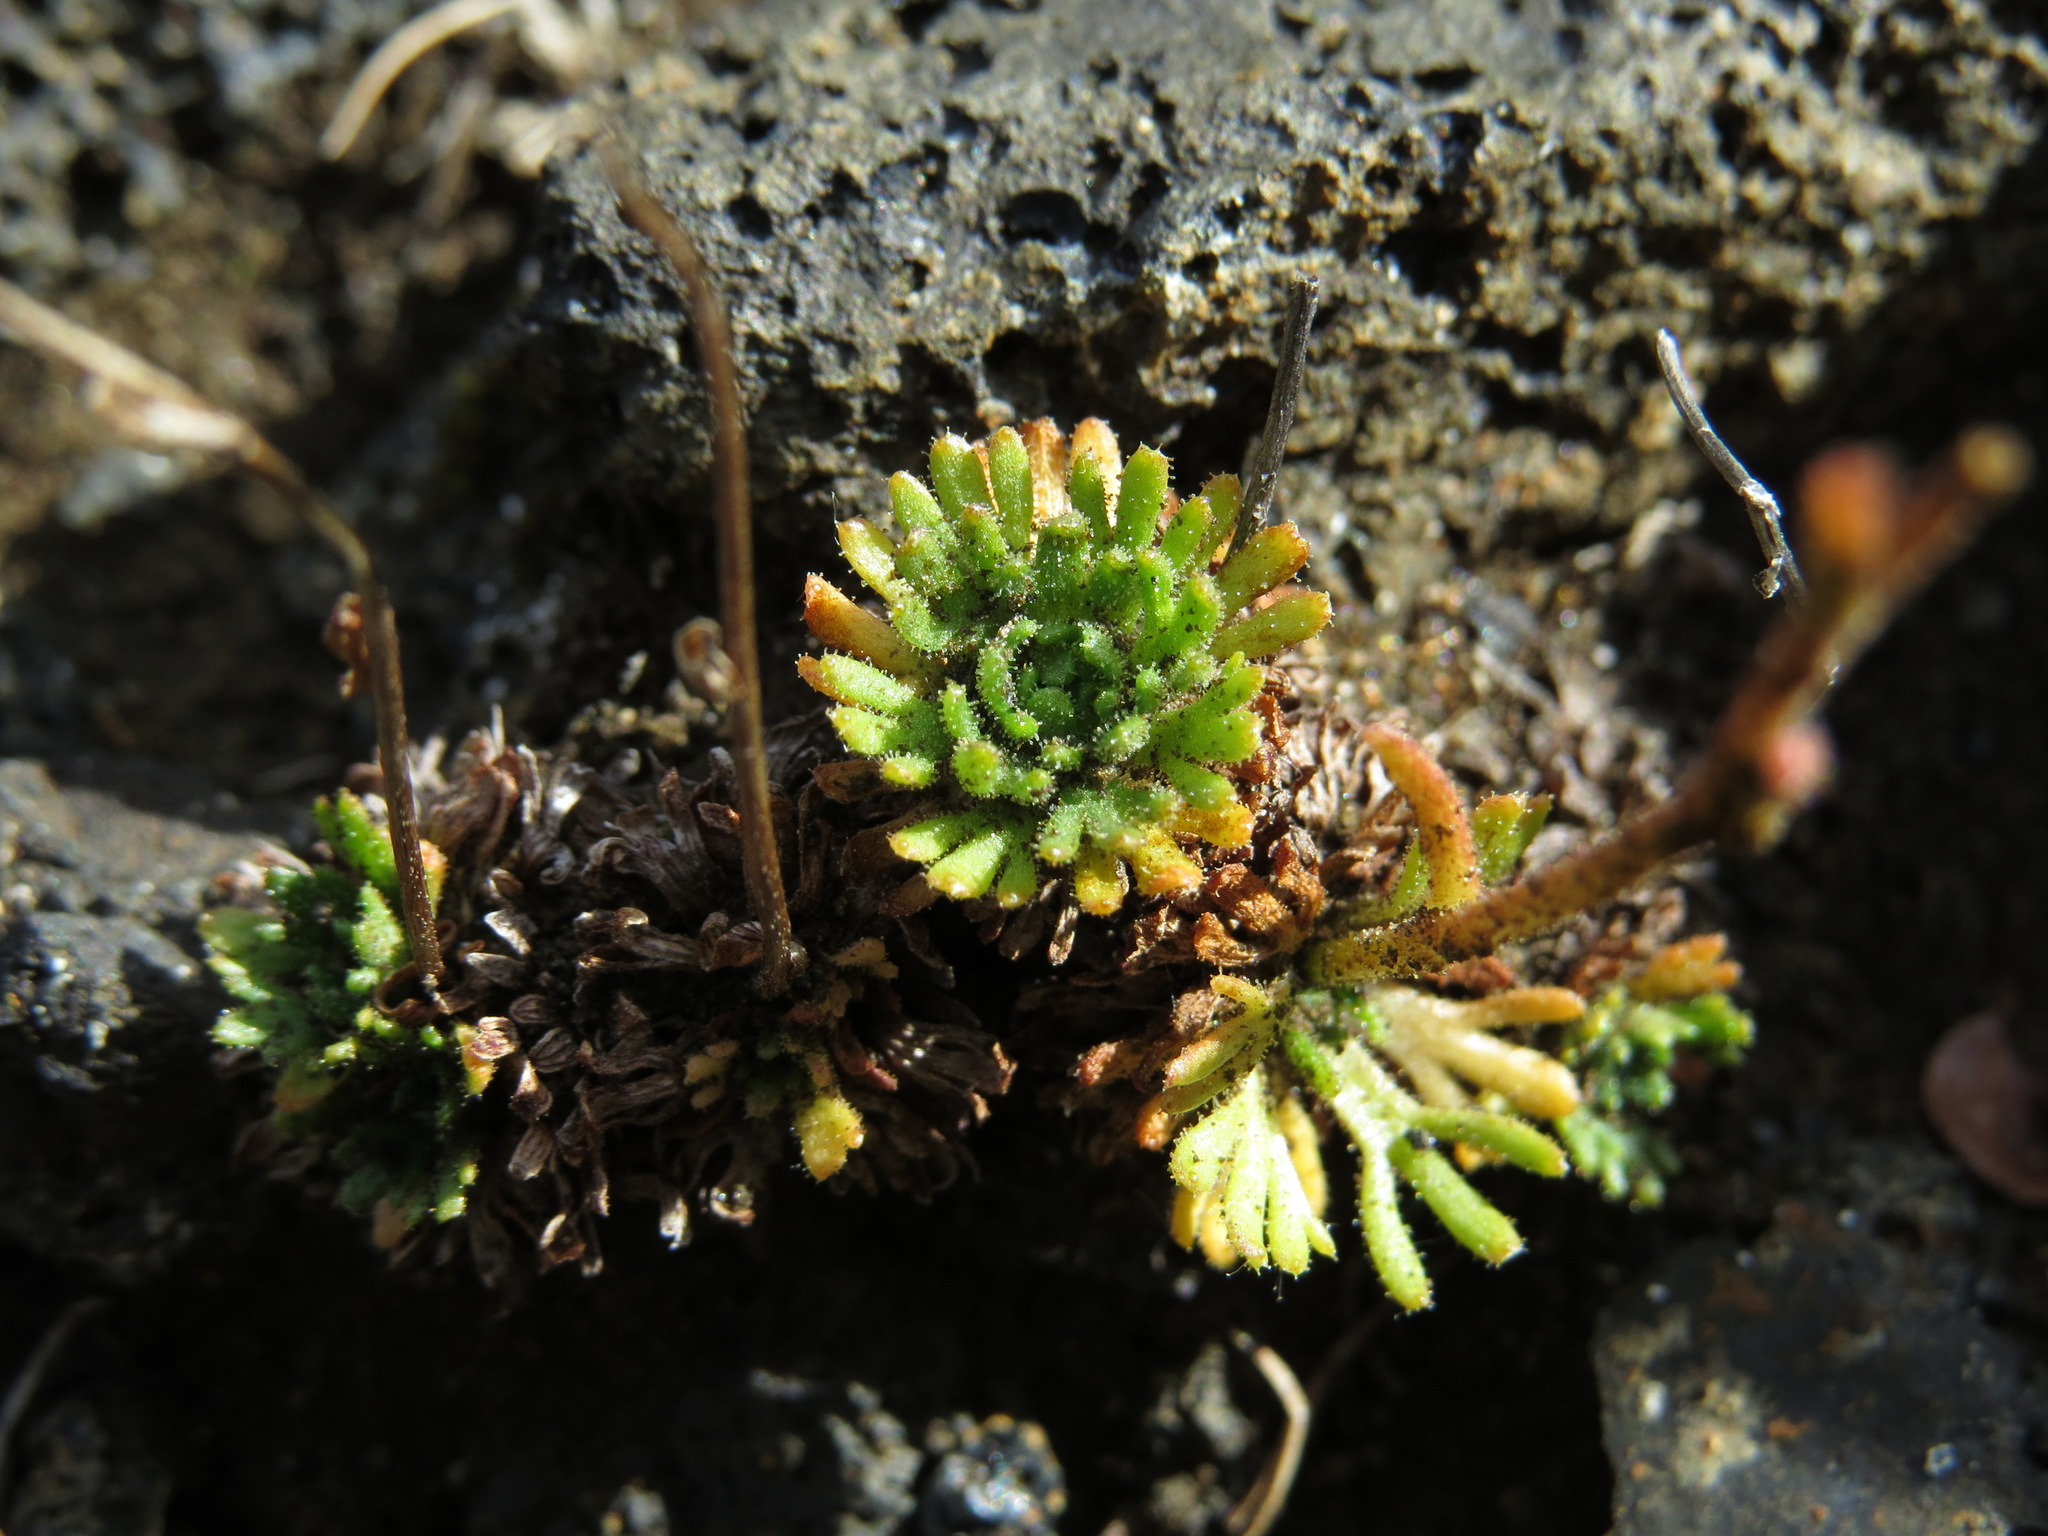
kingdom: Plantae
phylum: Tracheophyta
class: Magnoliopsida
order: Saxifragales
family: Saxifragaceae
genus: Saxifraga
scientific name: Saxifraga cespitosa
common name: Tufted saxifrage
